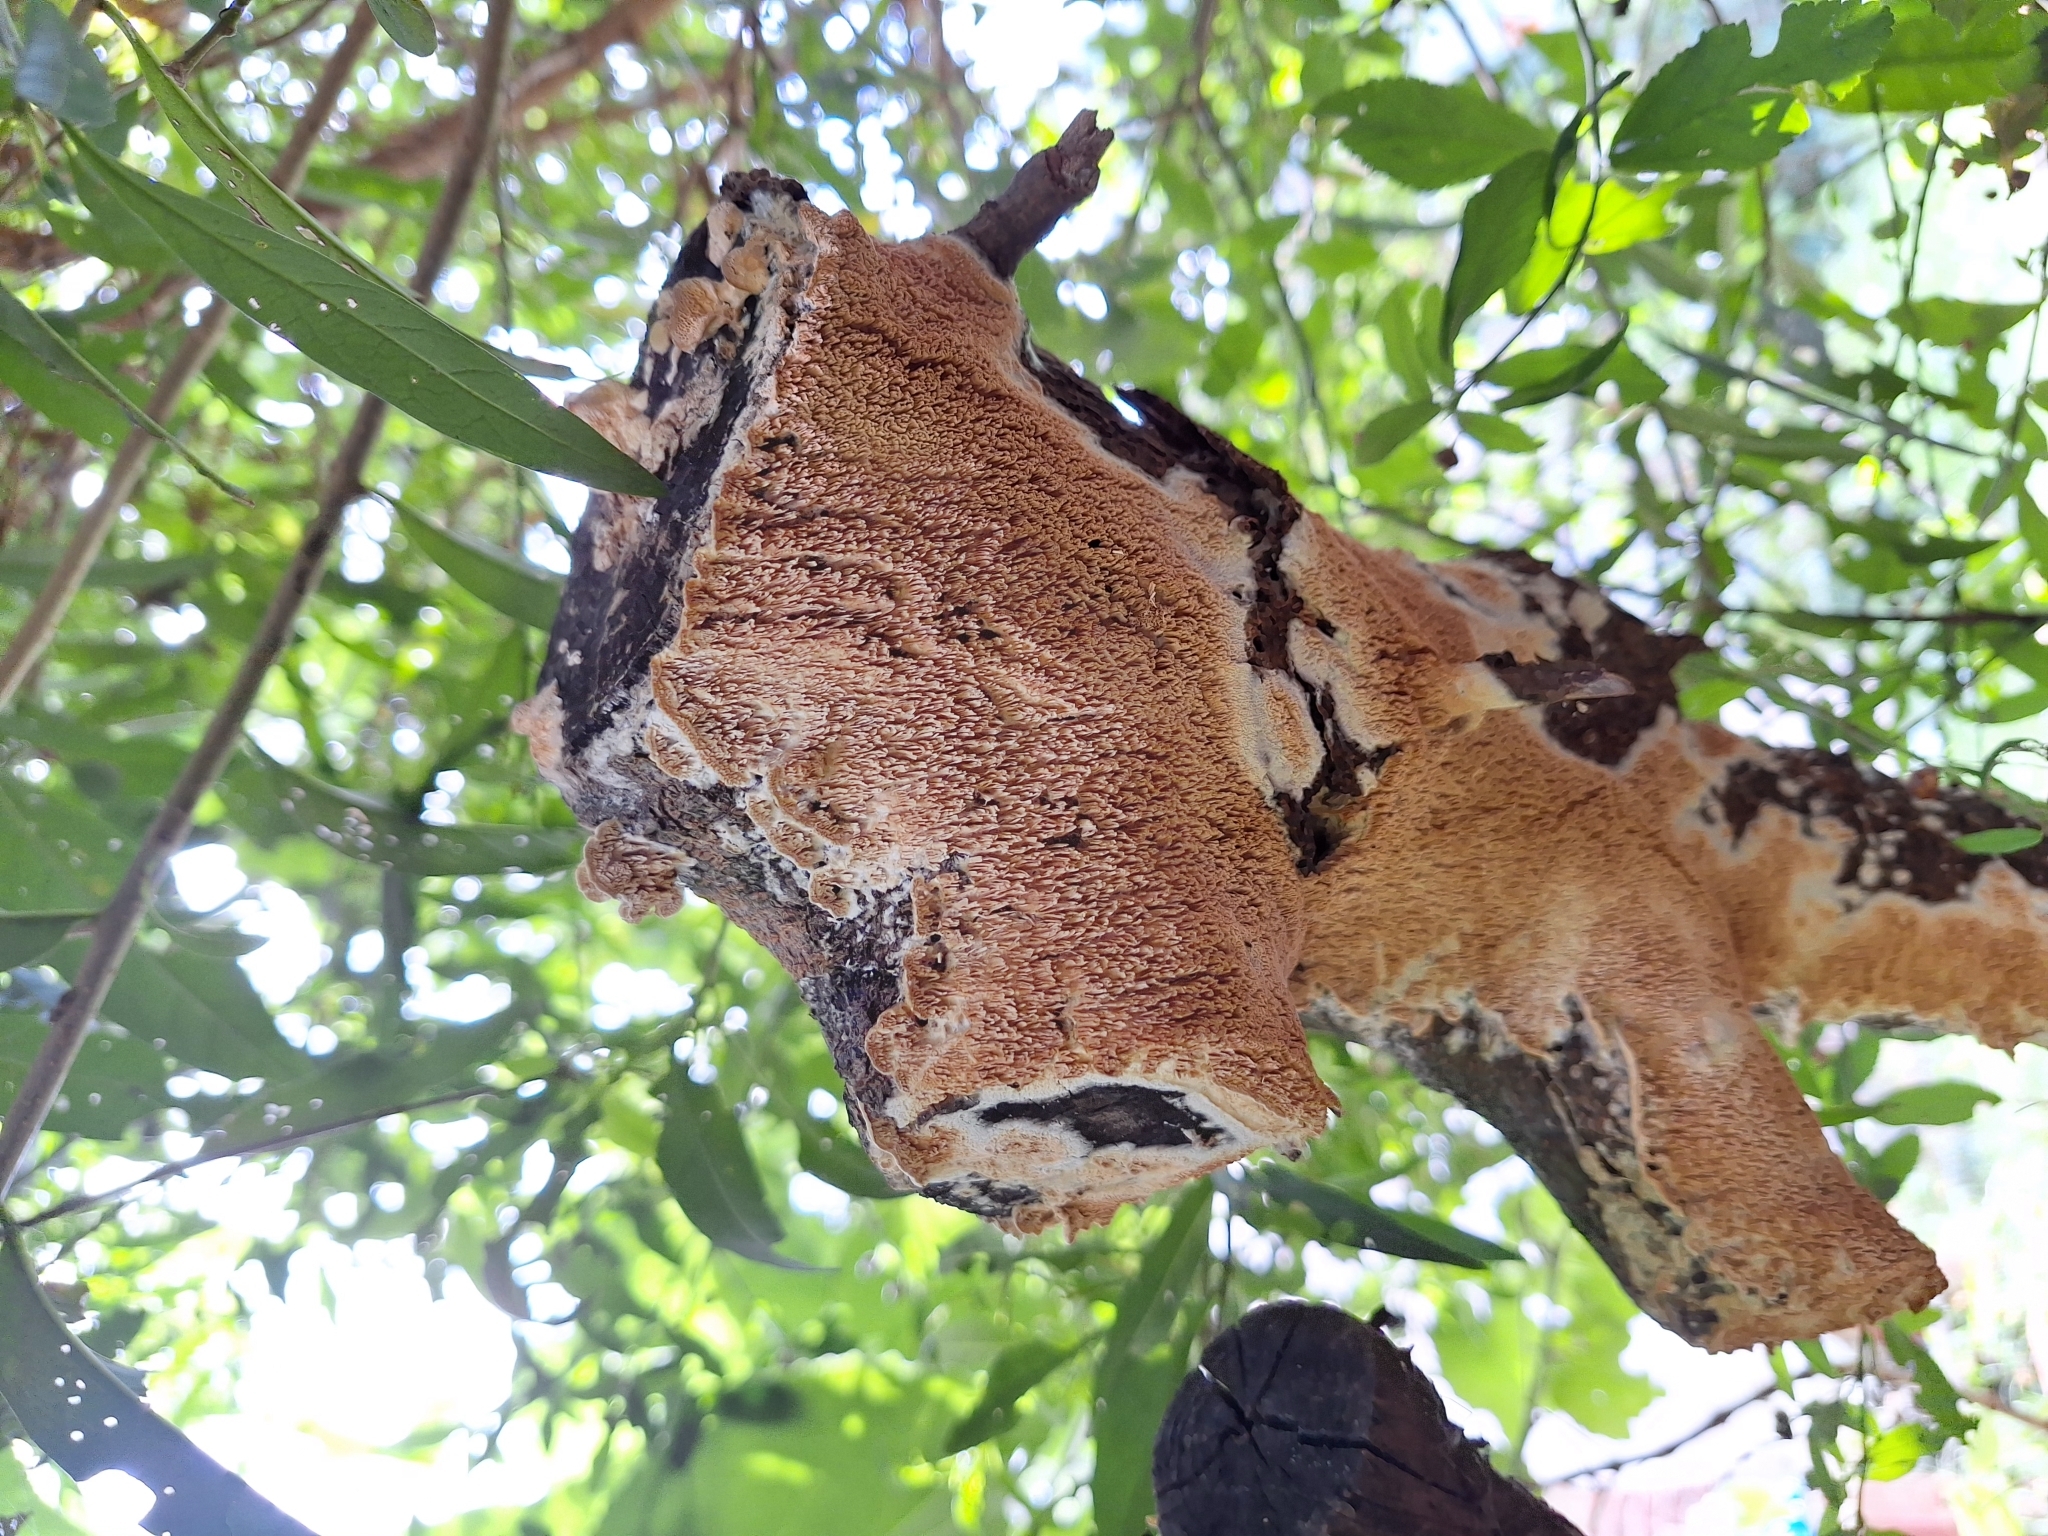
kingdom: Fungi
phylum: Basidiomycota
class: Agaricomycetes
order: Polyporales
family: Irpicaceae
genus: Irpex
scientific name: Irpex lacteus
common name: Milk-white toothed polypore
